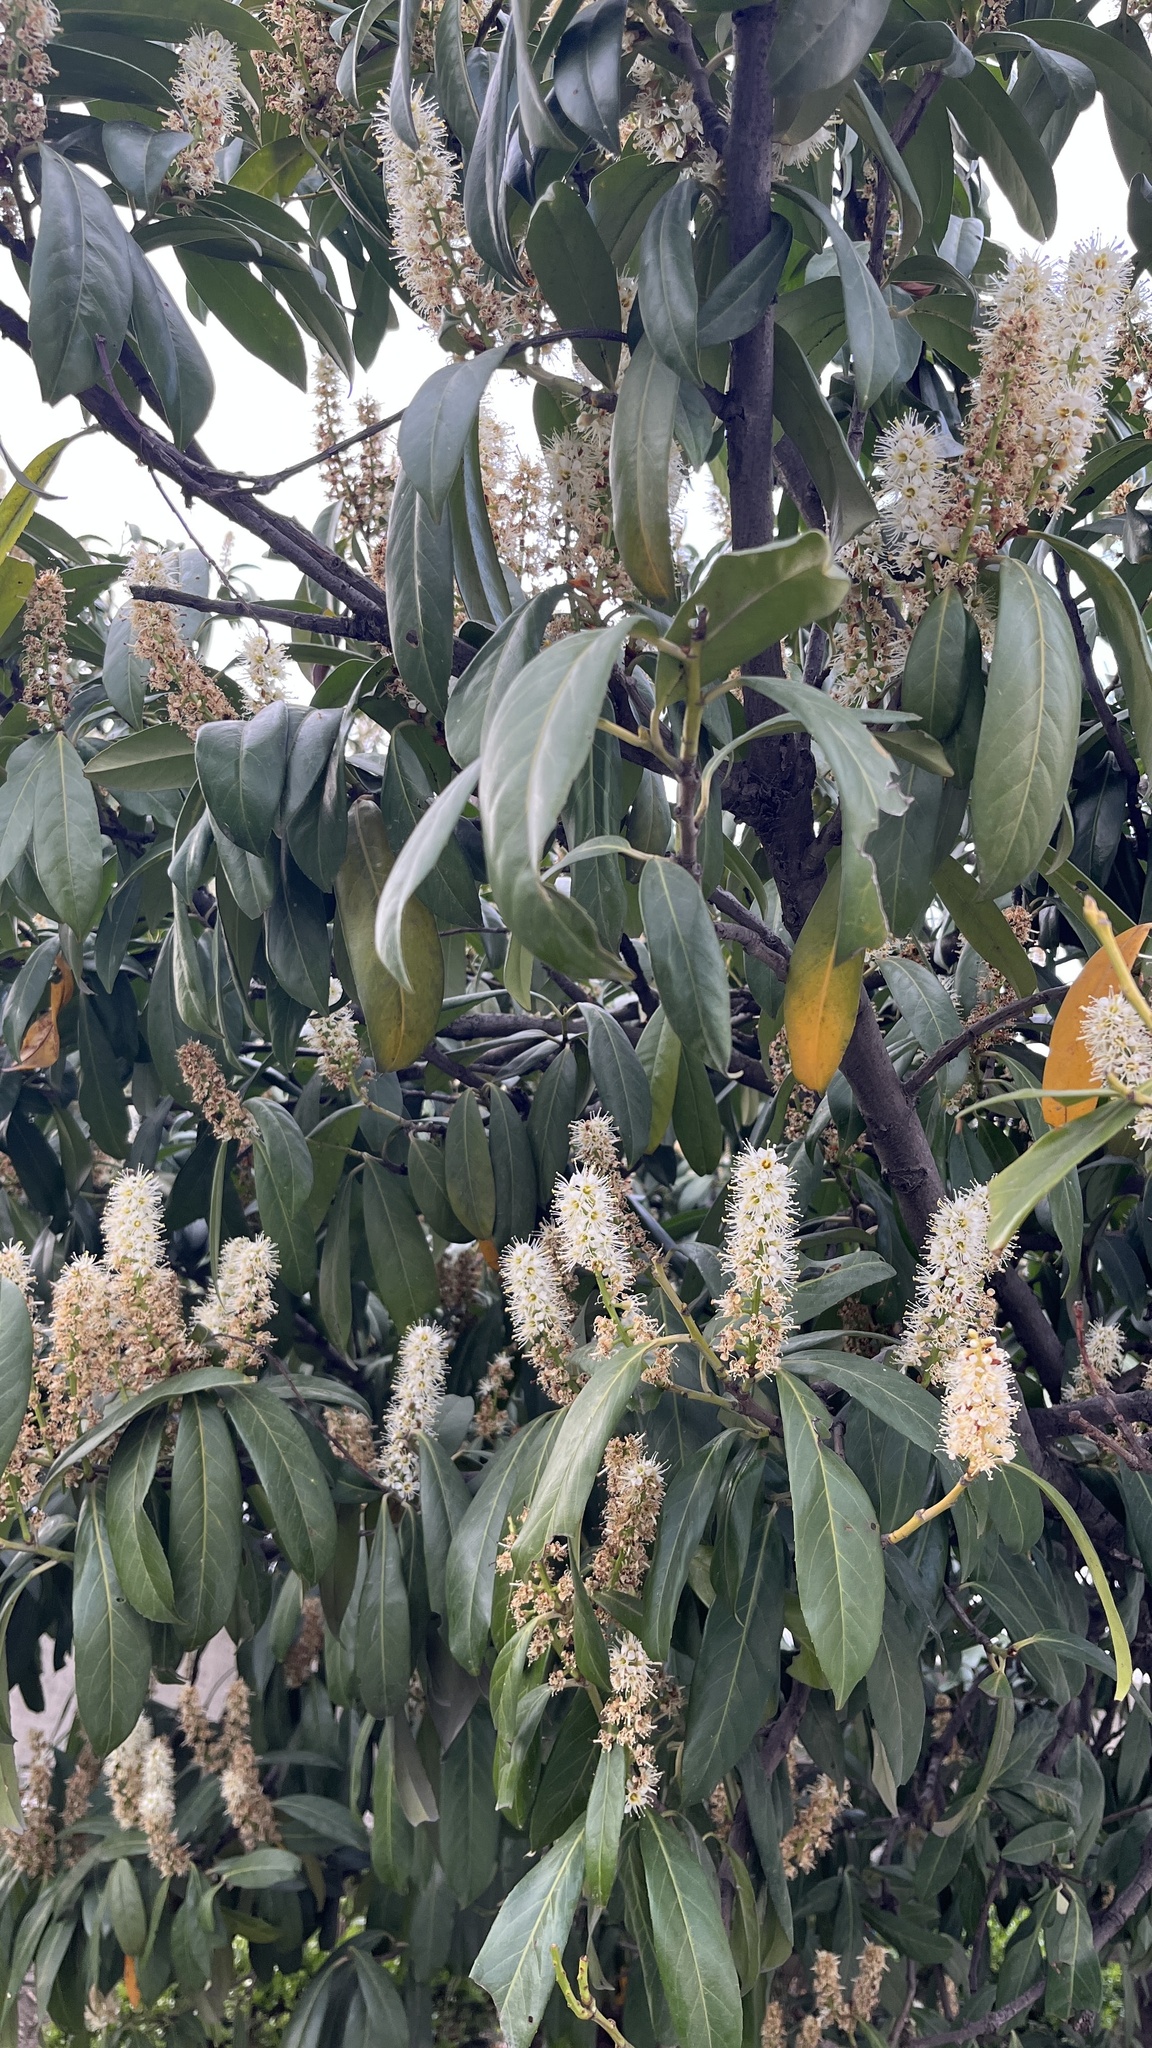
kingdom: Plantae
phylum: Tracheophyta
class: Magnoliopsida
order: Rosales
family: Rosaceae
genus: Prunus
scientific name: Prunus laurocerasus
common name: Cherry laurel
